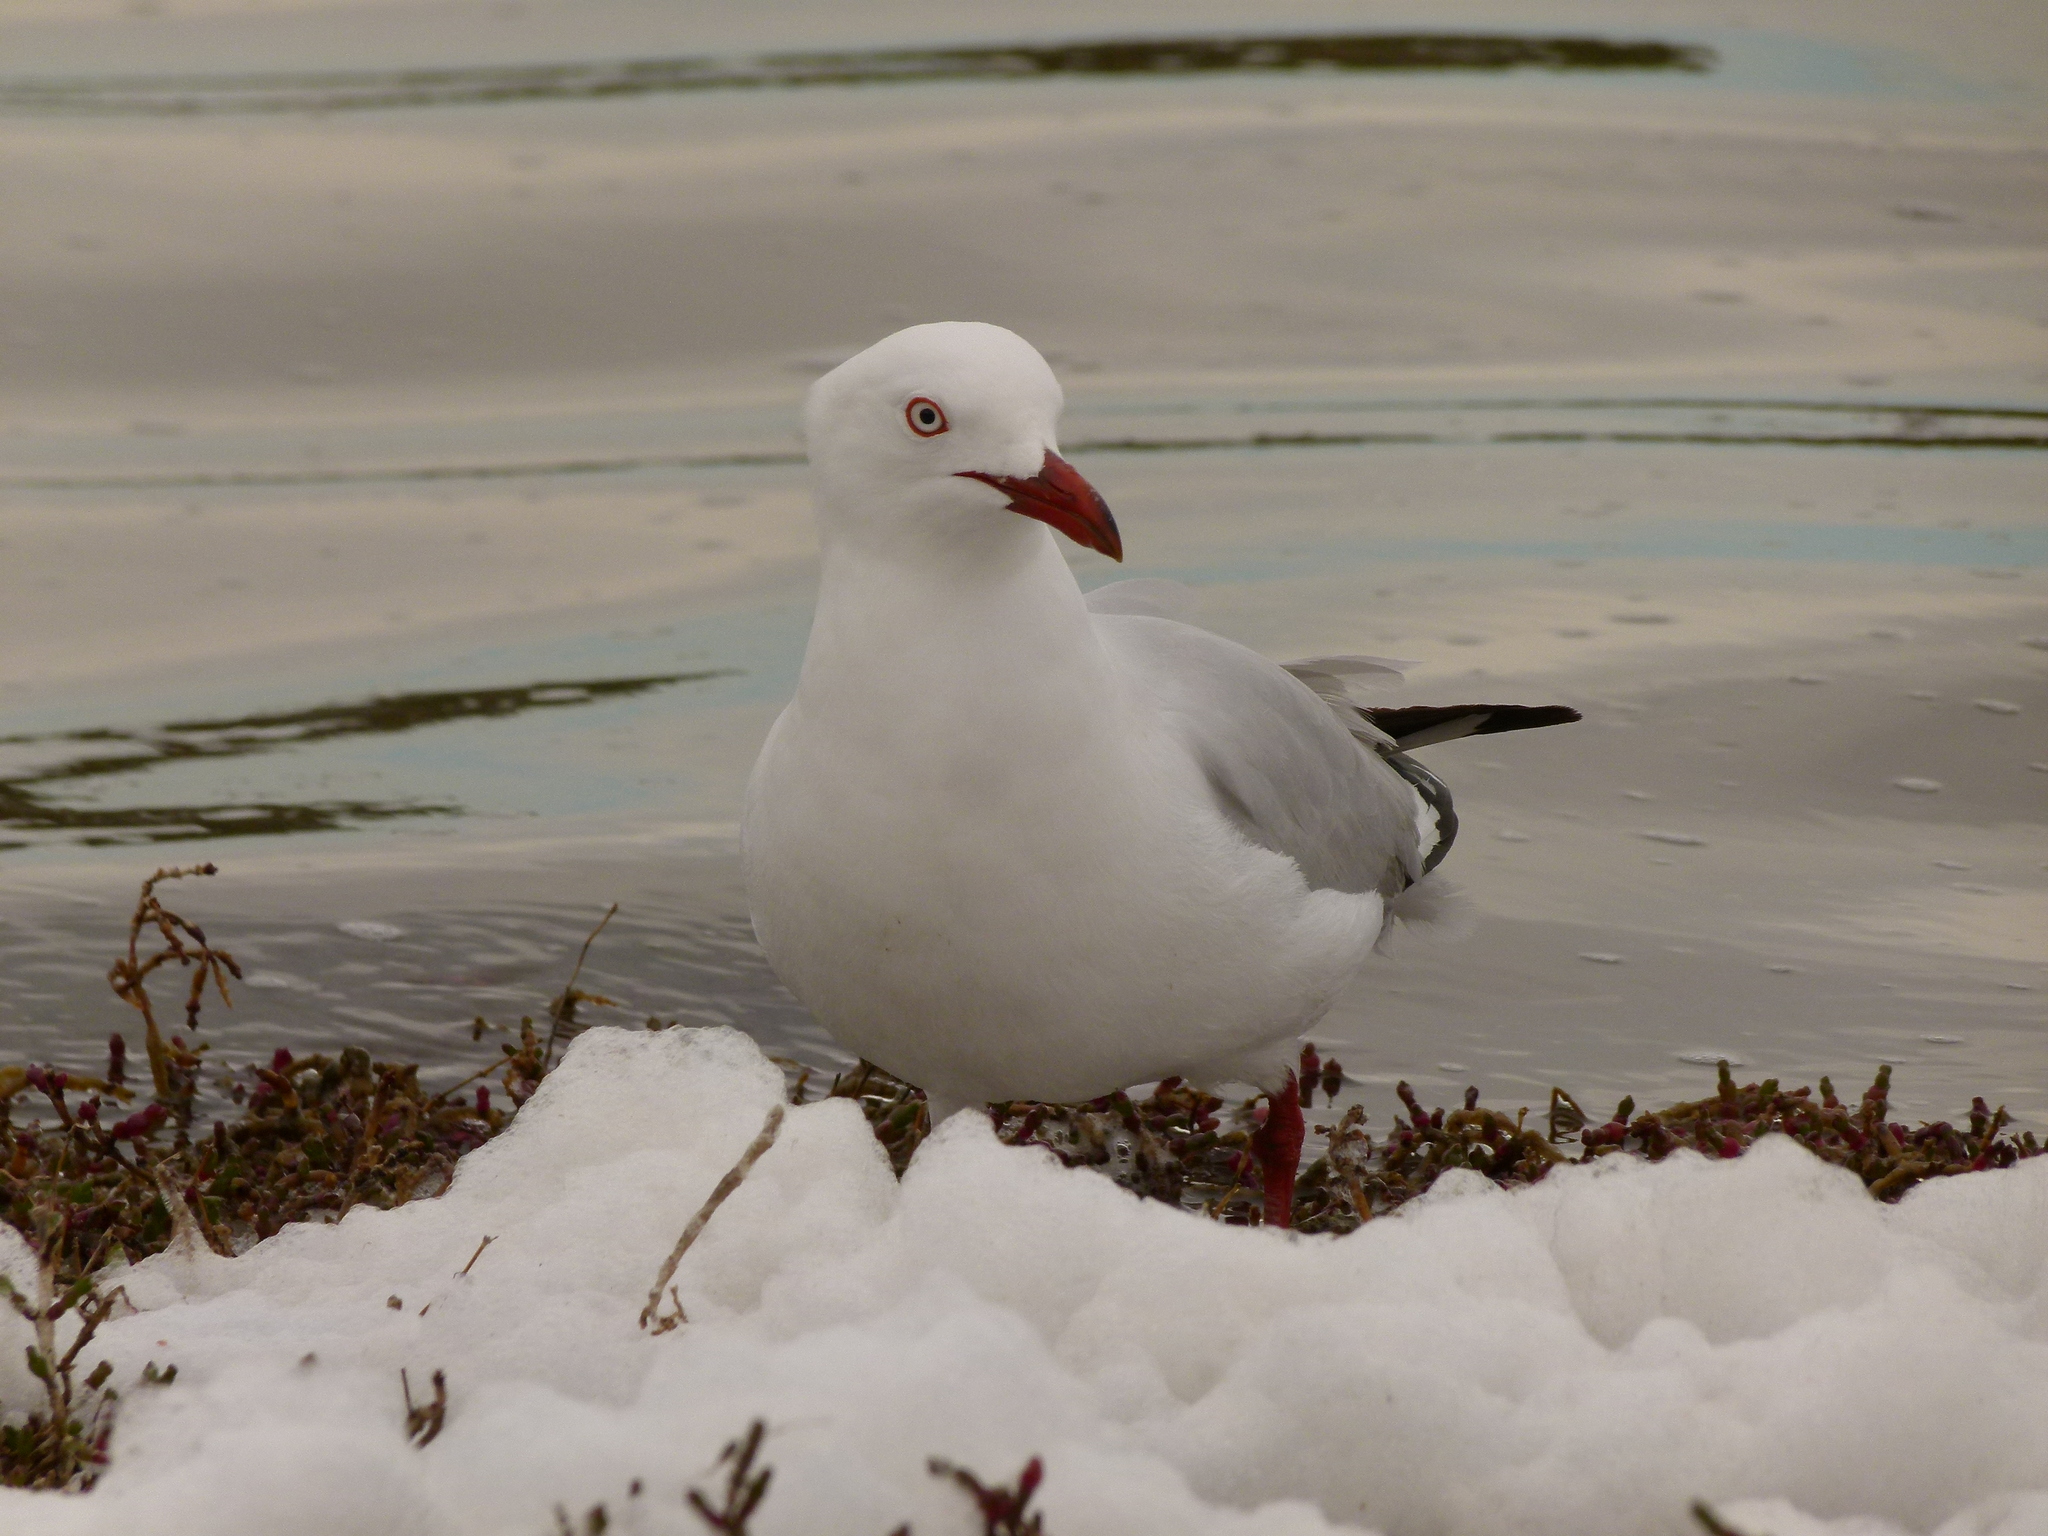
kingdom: Animalia
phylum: Chordata
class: Aves
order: Charadriiformes
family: Laridae
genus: Chroicocephalus
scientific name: Chroicocephalus novaehollandiae
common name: Silver gull
